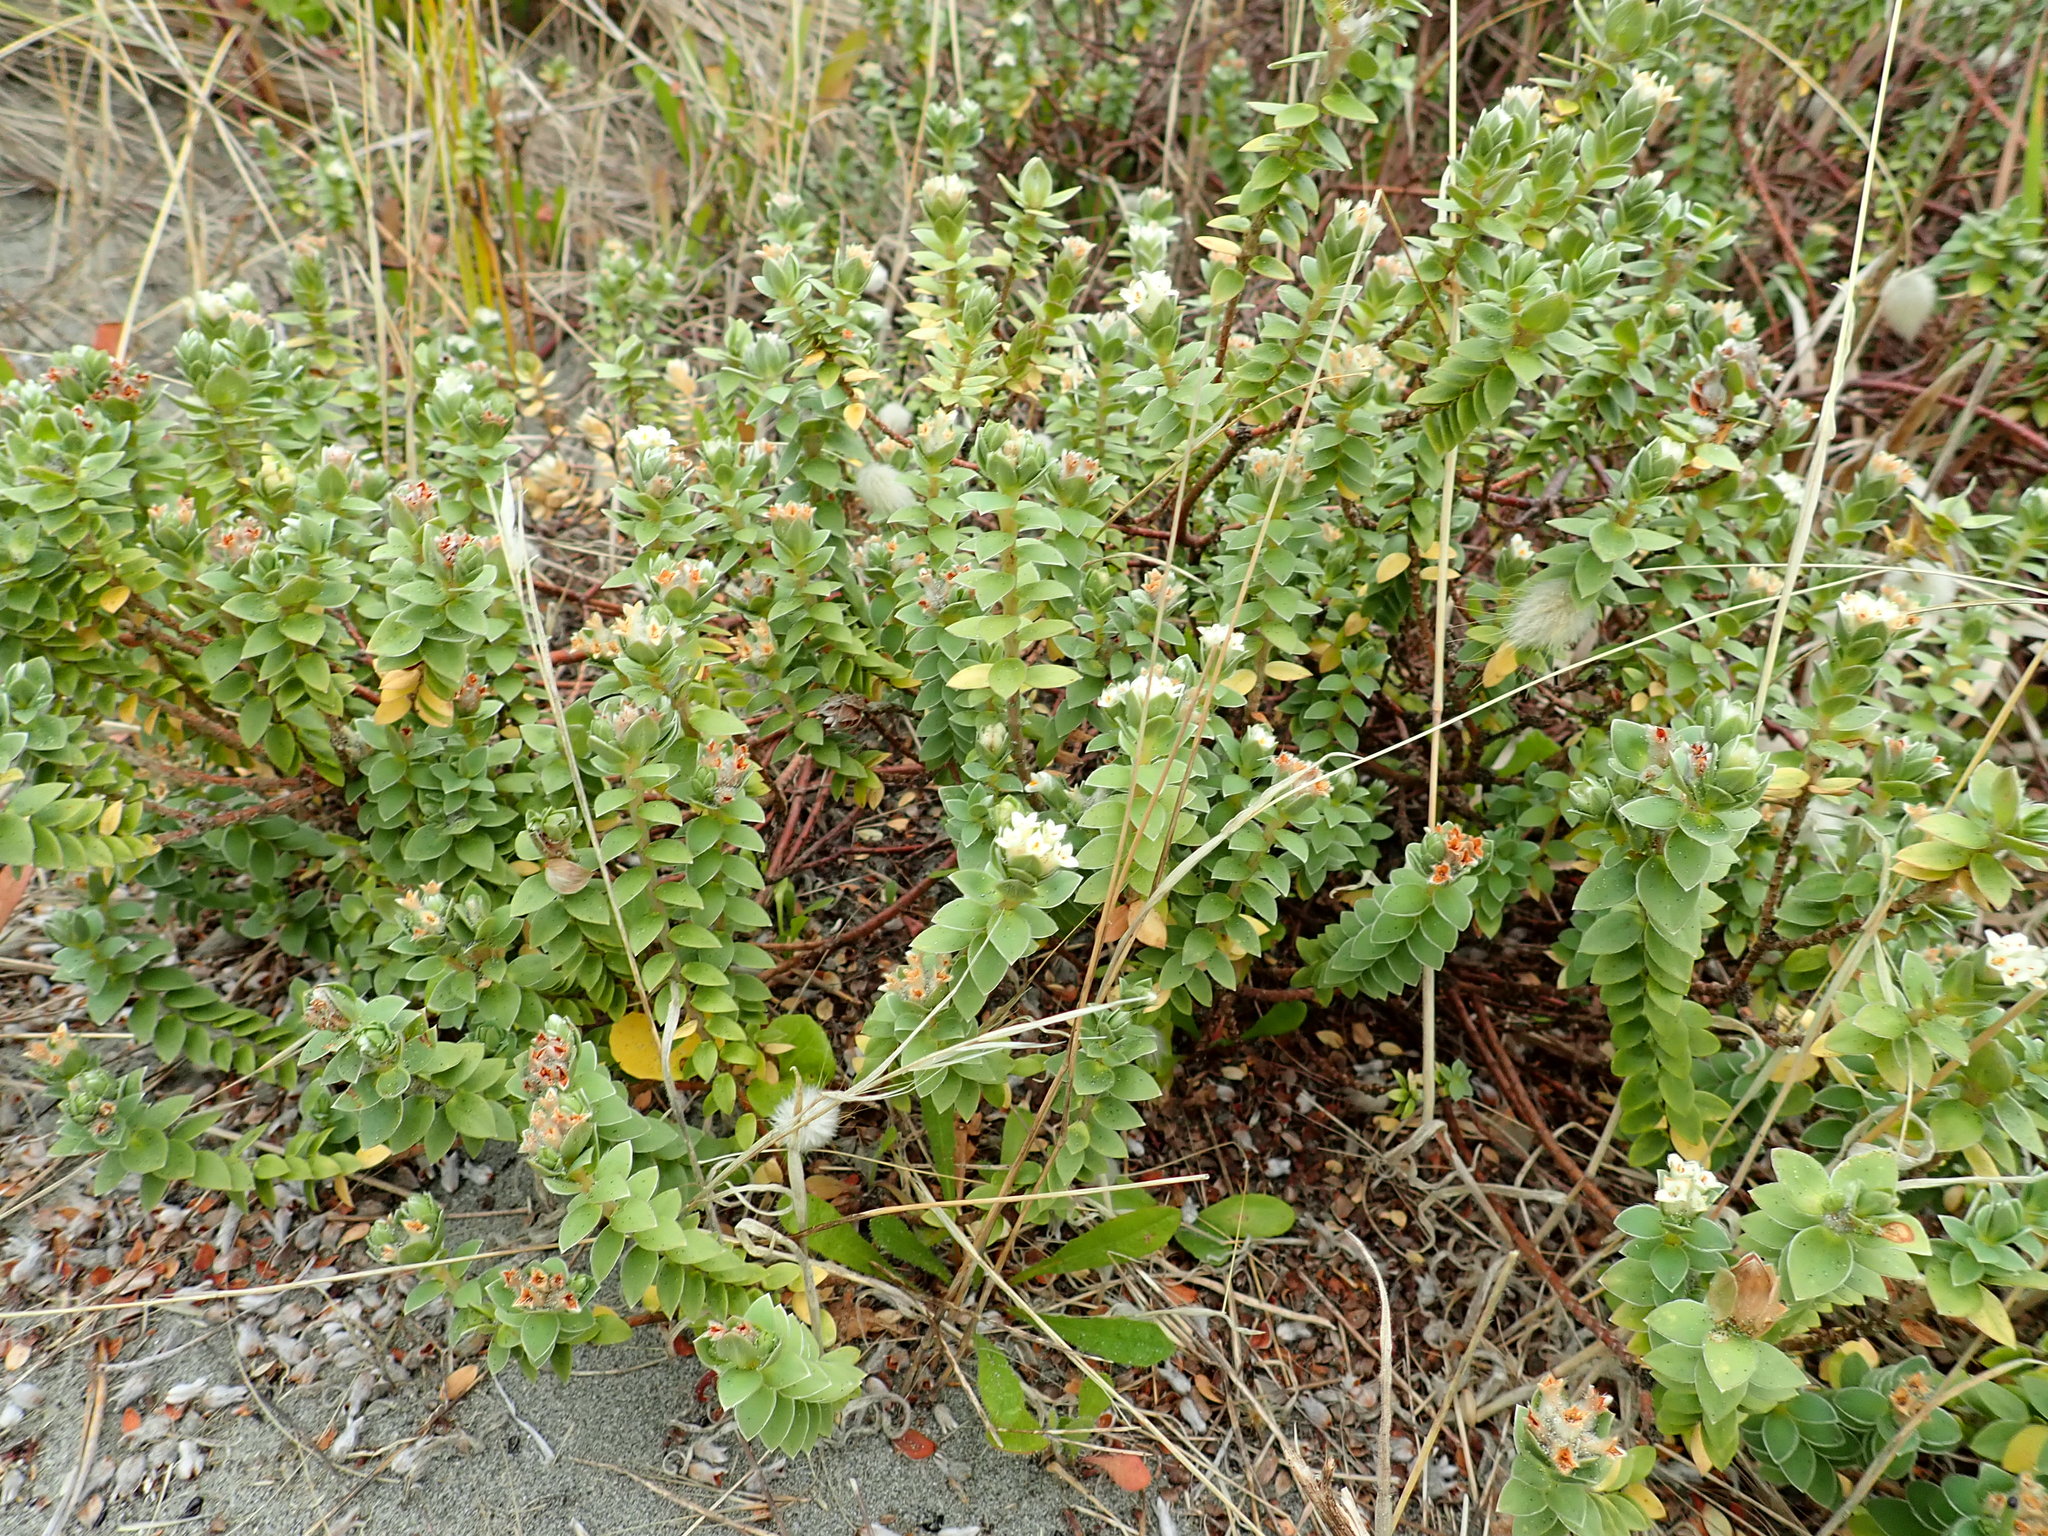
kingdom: Plantae
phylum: Tracheophyta
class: Magnoliopsida
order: Malvales
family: Thymelaeaceae
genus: Pimelea
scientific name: Pimelea villosa
